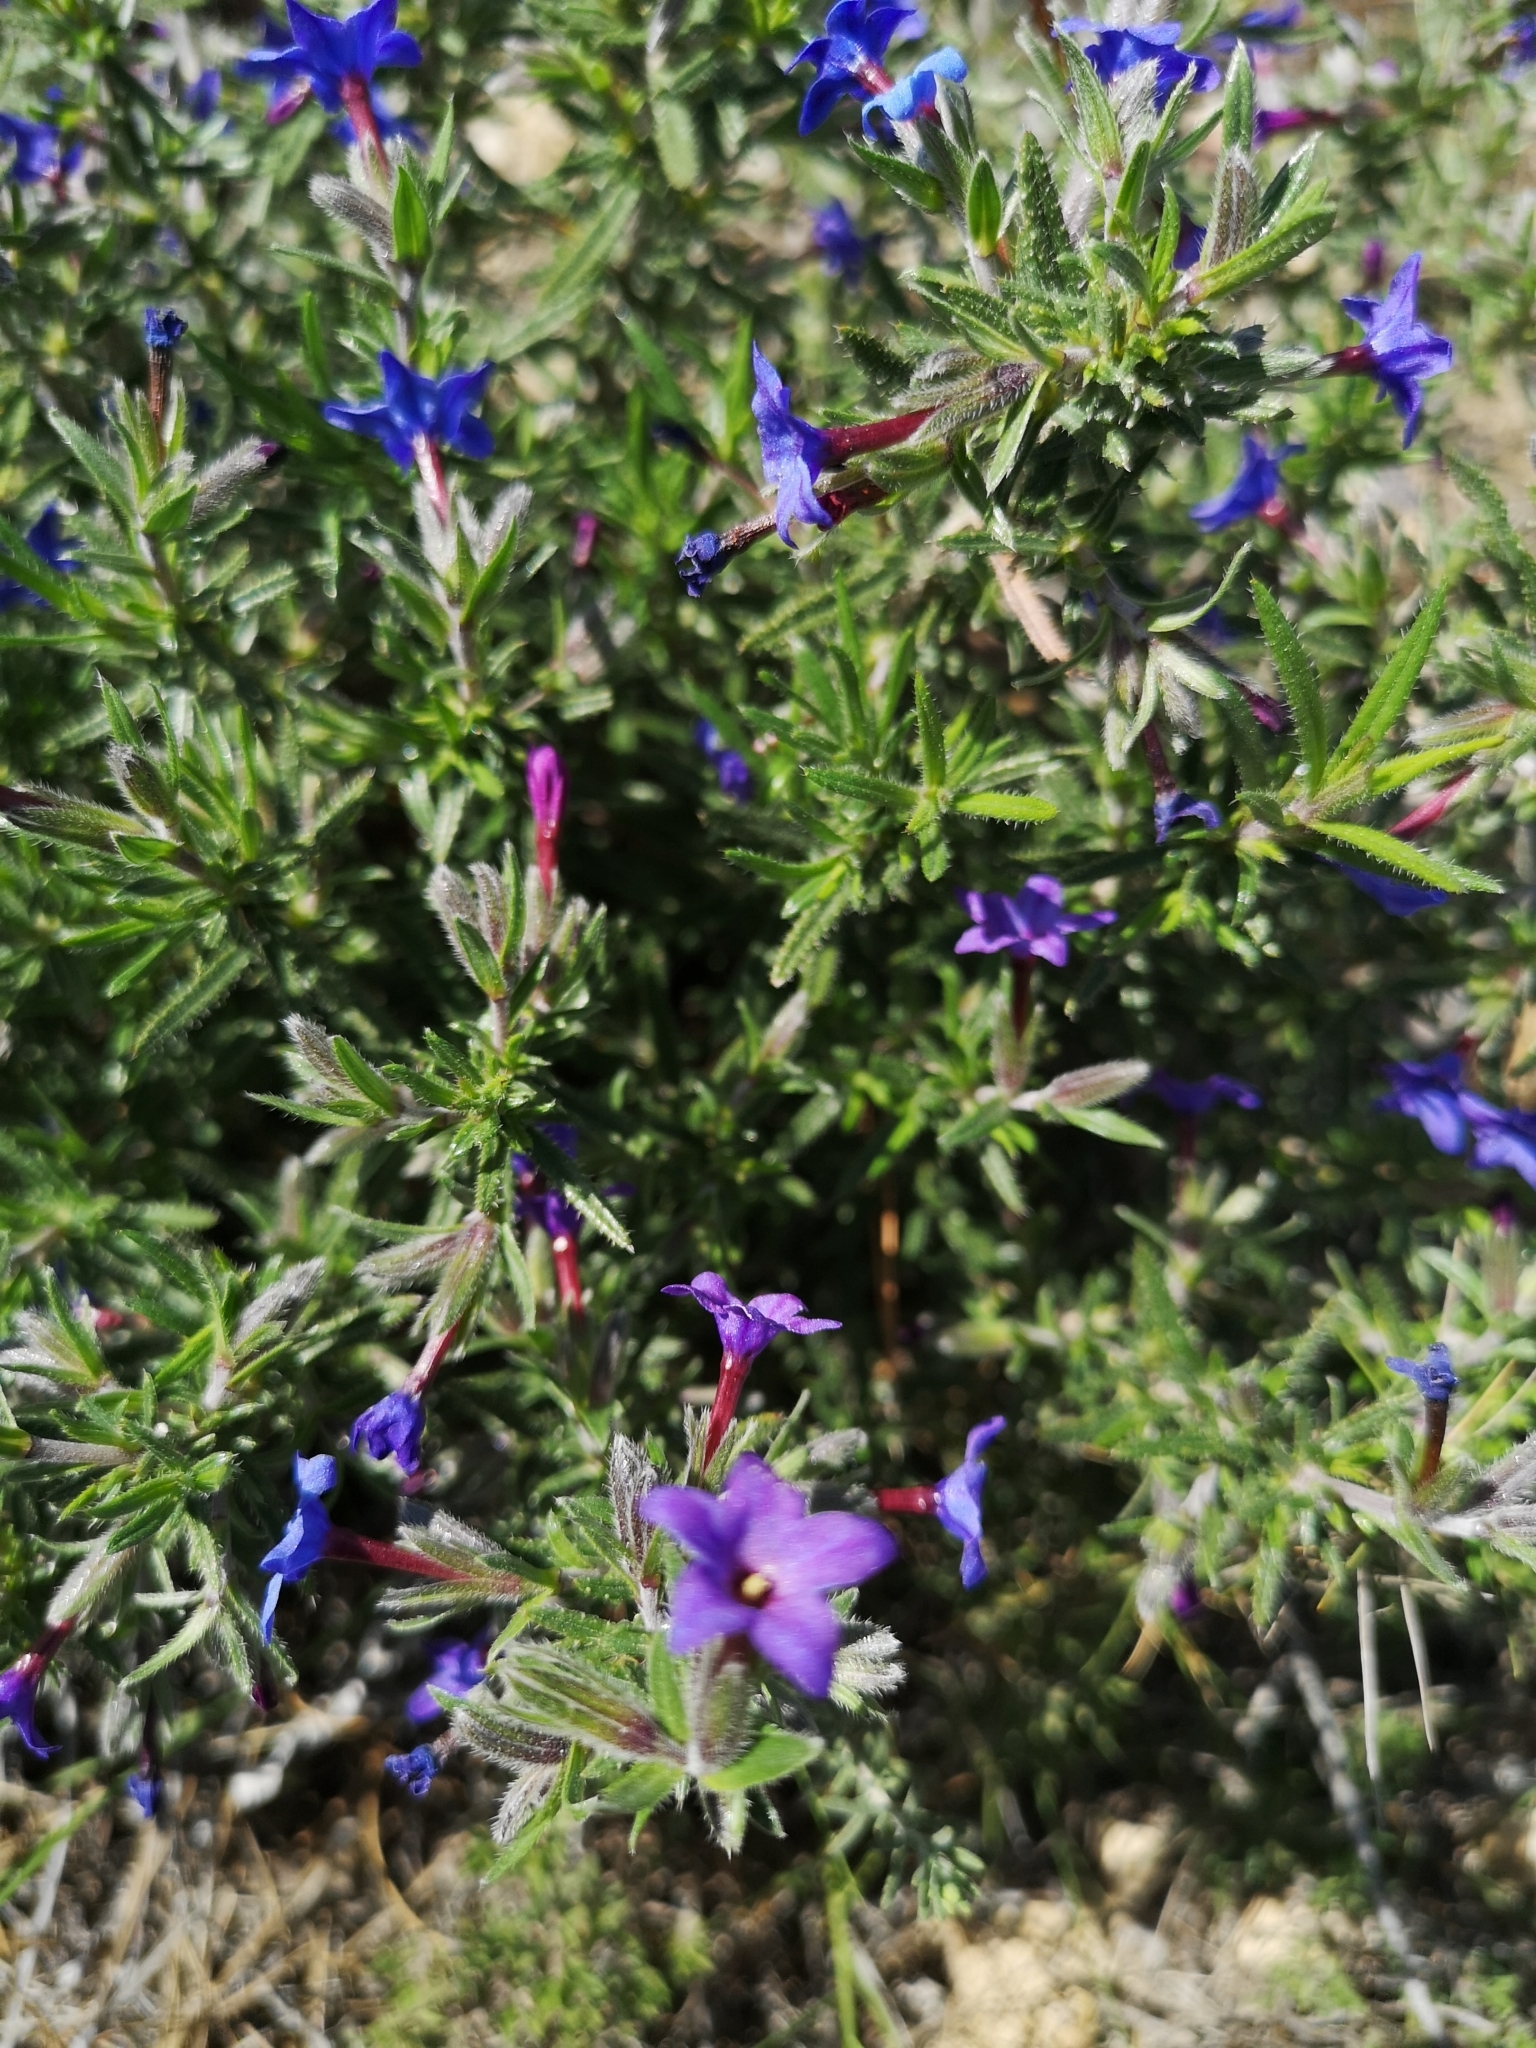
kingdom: Plantae
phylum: Tracheophyta
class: Magnoliopsida
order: Boraginales
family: Boraginaceae
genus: Lithodora
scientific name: Lithodora fruticosa
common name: Shrubby gromwell
